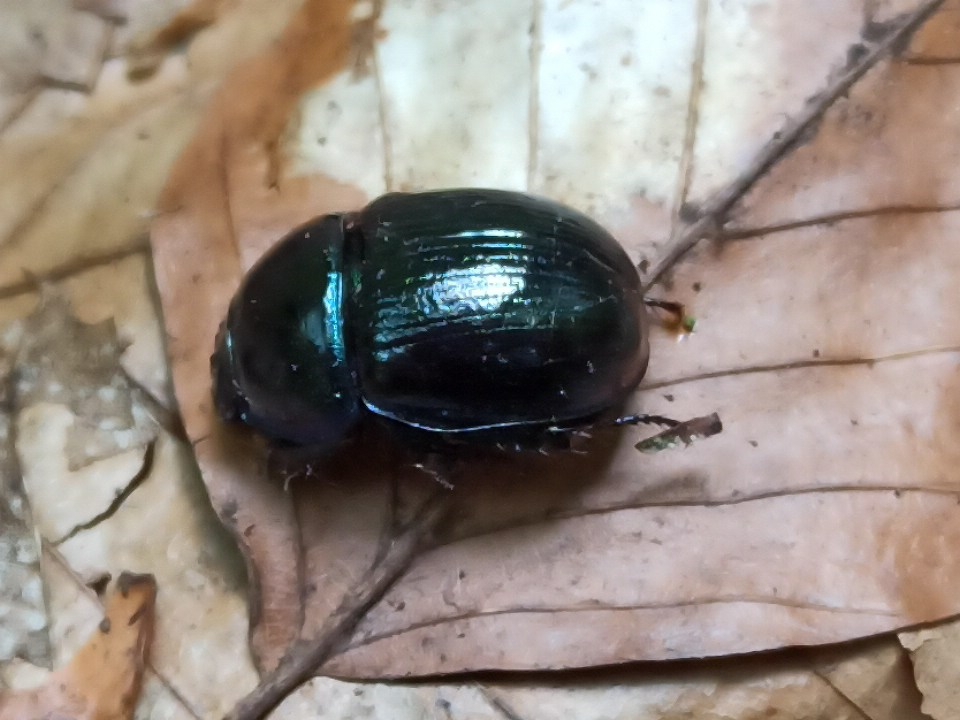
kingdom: Animalia
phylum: Arthropoda
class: Insecta
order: Coleoptera
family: Geotrupidae
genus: Anoplotrupes
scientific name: Anoplotrupes stercorosus
